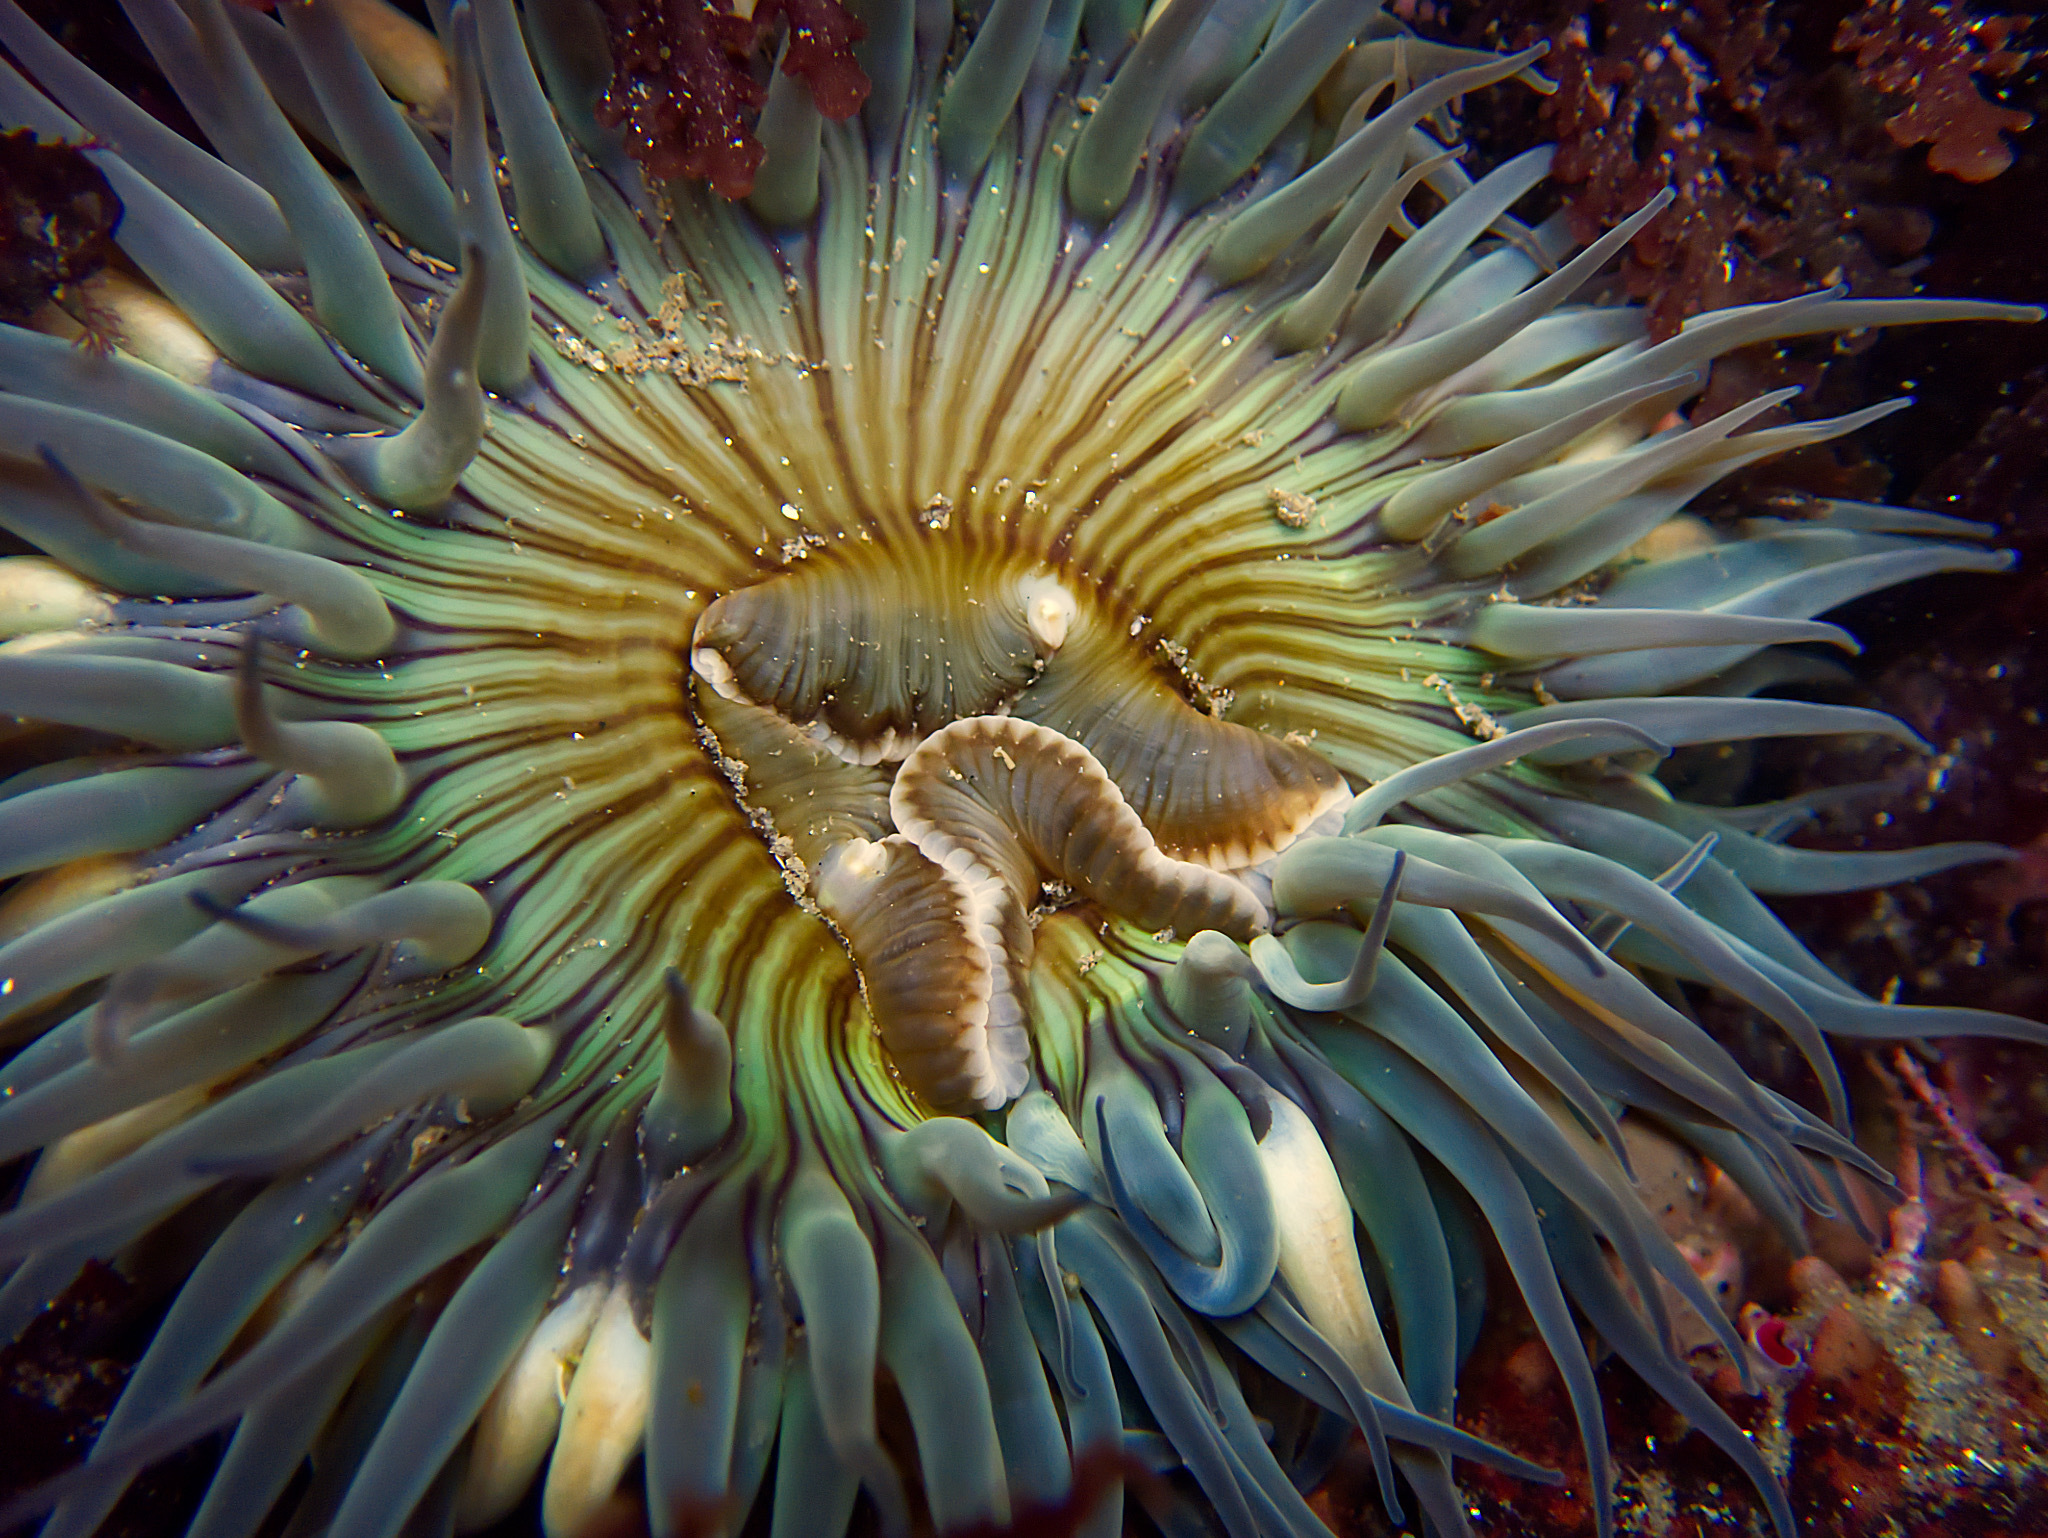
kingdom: Animalia
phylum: Cnidaria
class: Anthozoa
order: Actiniaria
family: Actiniidae
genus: Anthopleura
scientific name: Anthopleura sola
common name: Sun anemone
